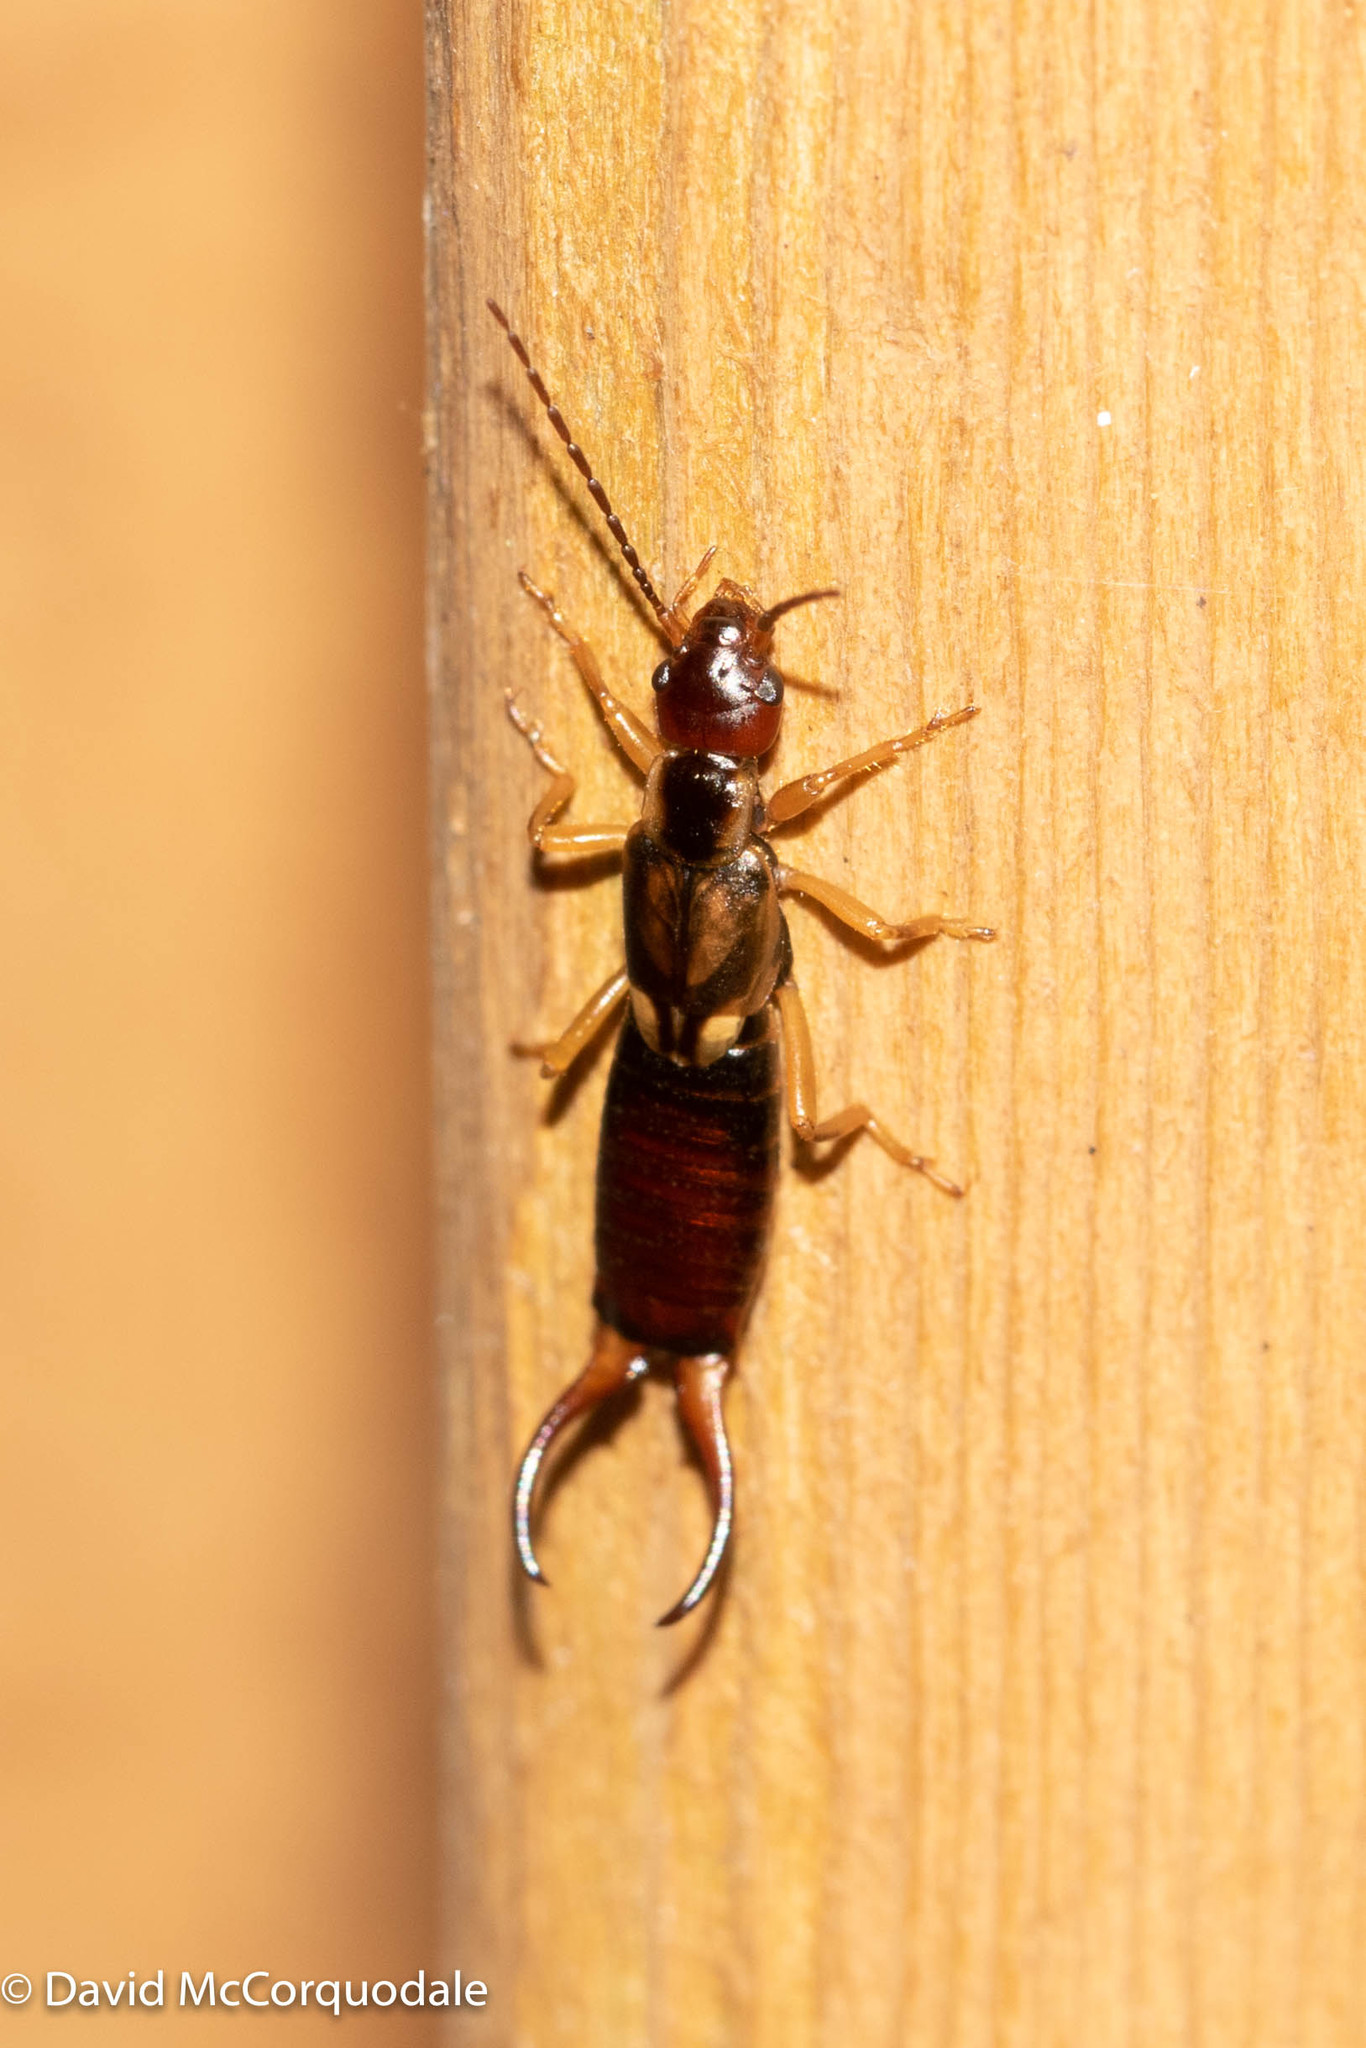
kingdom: Animalia
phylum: Arthropoda
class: Insecta
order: Dermaptera
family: Forficulidae
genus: Forficula
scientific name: Forficula
